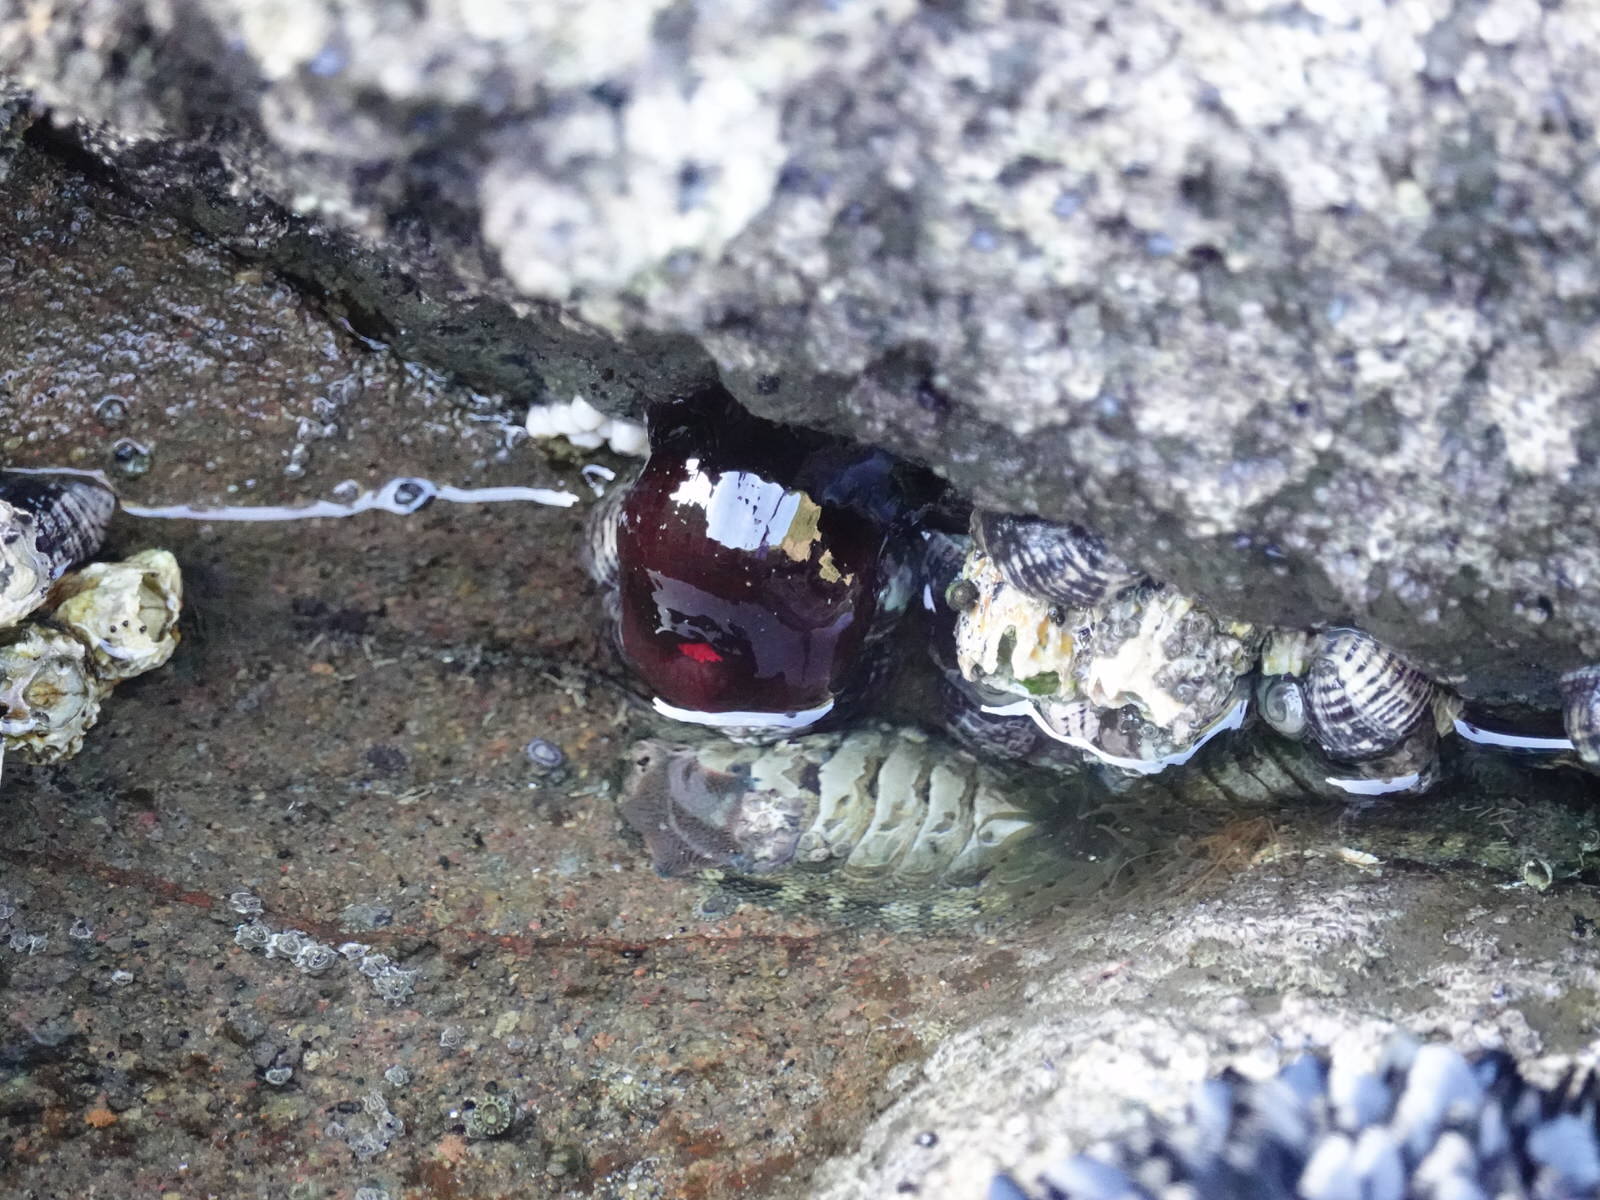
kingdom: Animalia
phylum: Cnidaria
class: Anthozoa
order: Actiniaria
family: Actiniidae
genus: Actinia
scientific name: Actinia tenebrosa
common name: Waratah anemone
